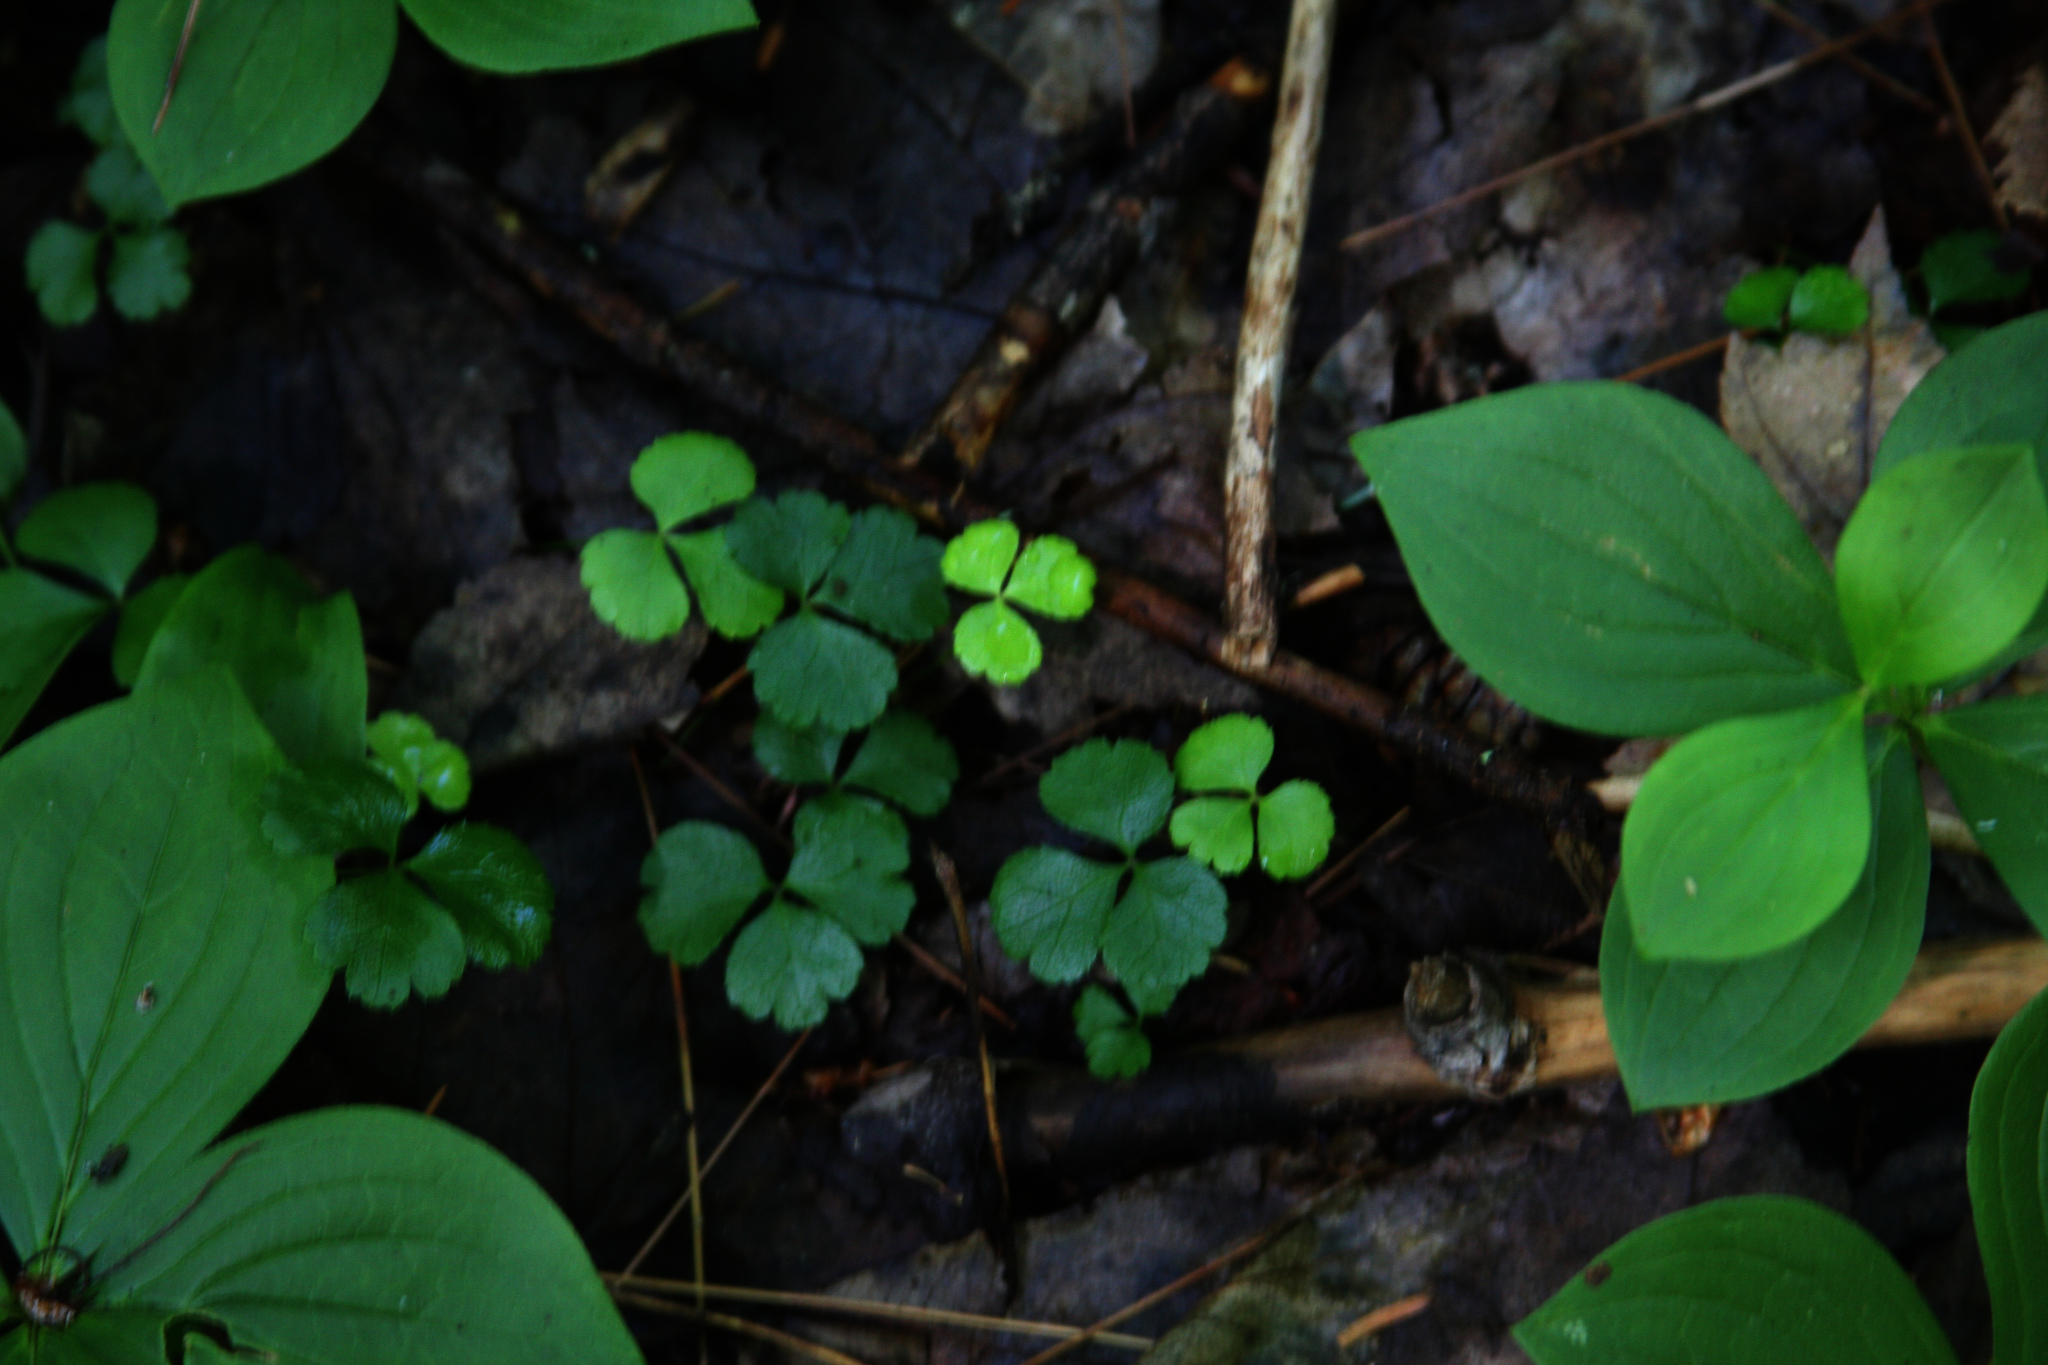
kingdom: Plantae
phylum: Tracheophyta
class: Magnoliopsida
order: Ranunculales
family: Ranunculaceae
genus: Coptis
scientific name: Coptis trifolia
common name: Canker-root
